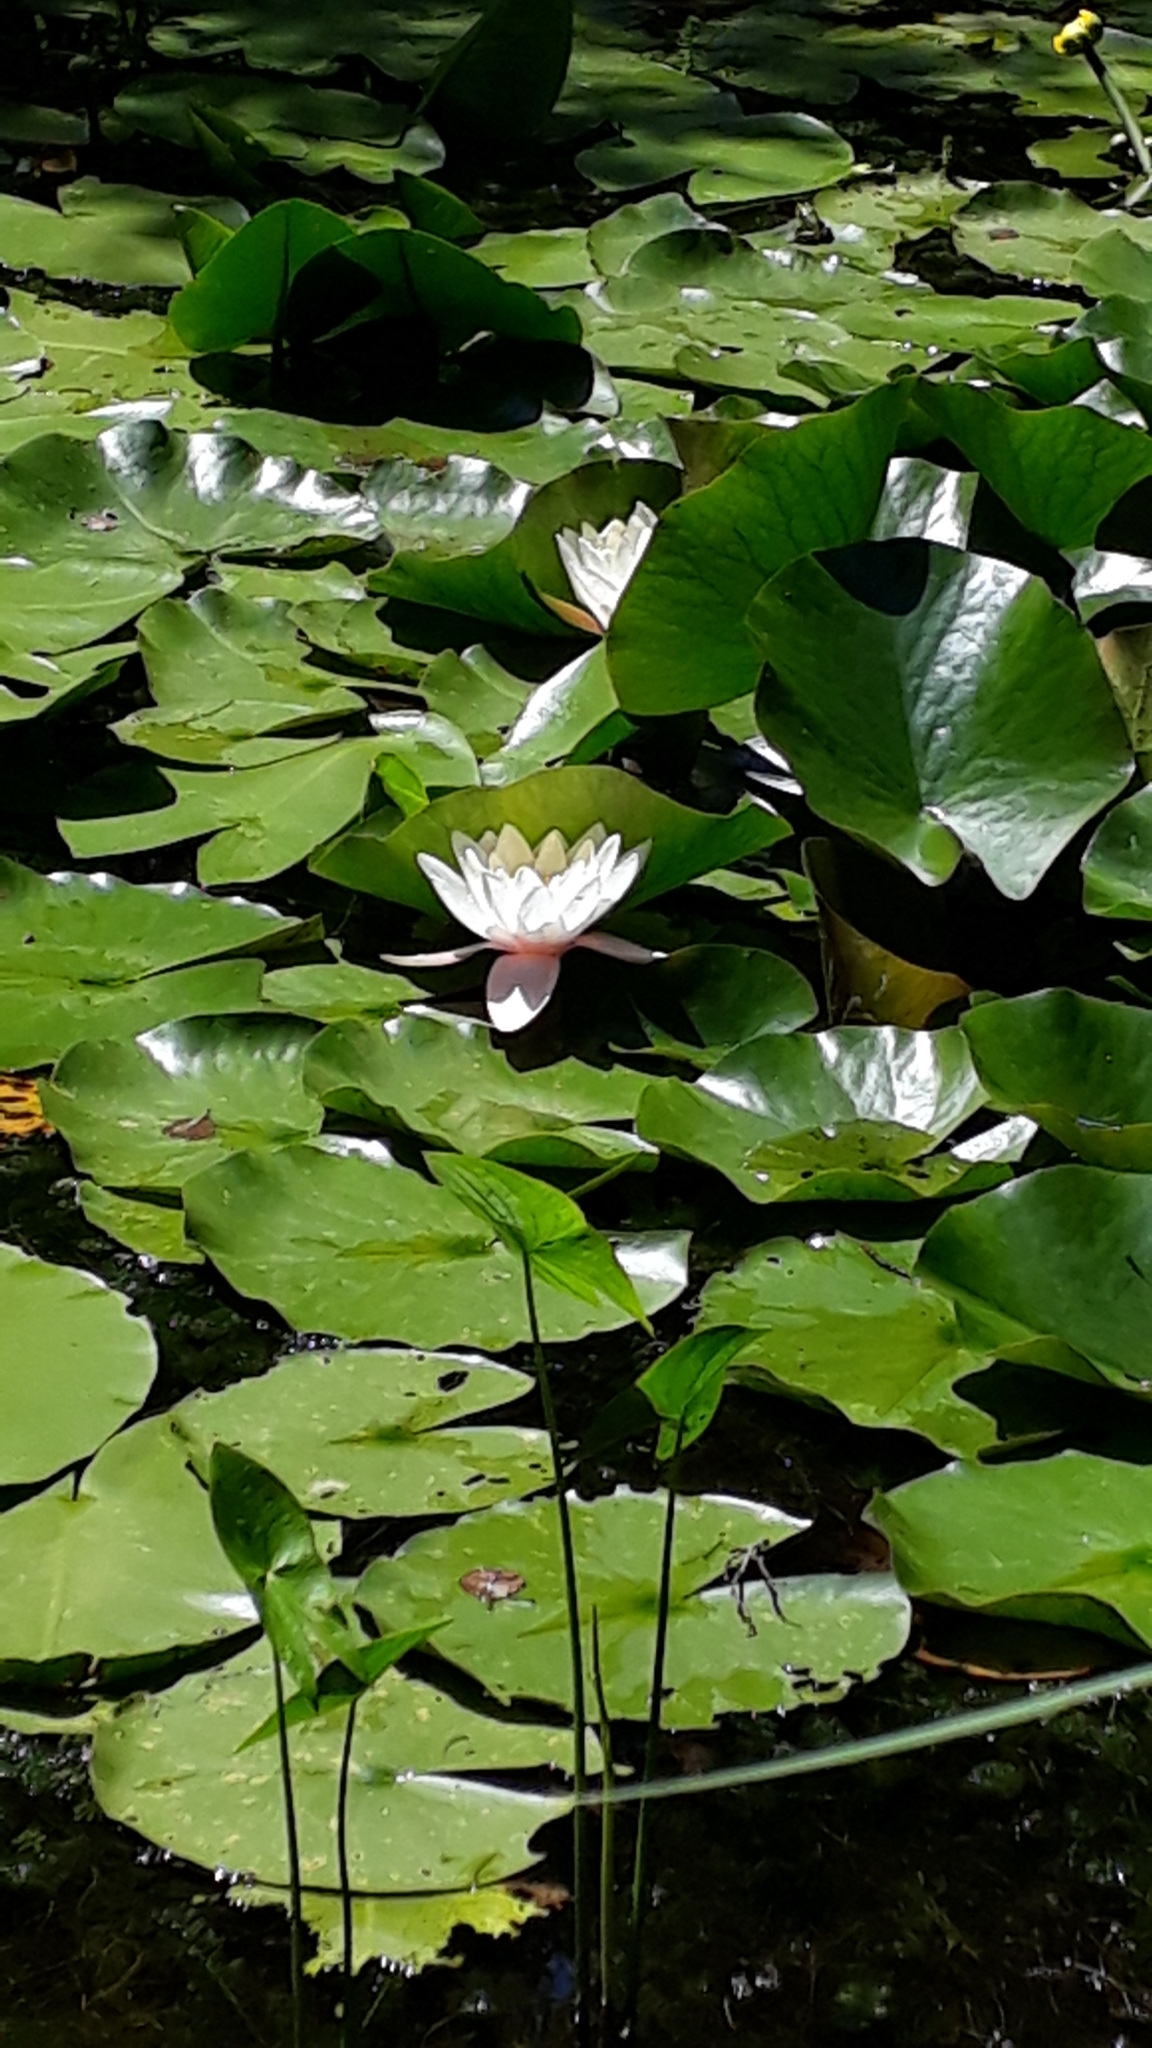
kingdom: Plantae
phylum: Tracheophyta
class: Magnoliopsida
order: Nymphaeales
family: Nymphaeaceae
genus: Nymphaea
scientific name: Nymphaea alba
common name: White water-lily
